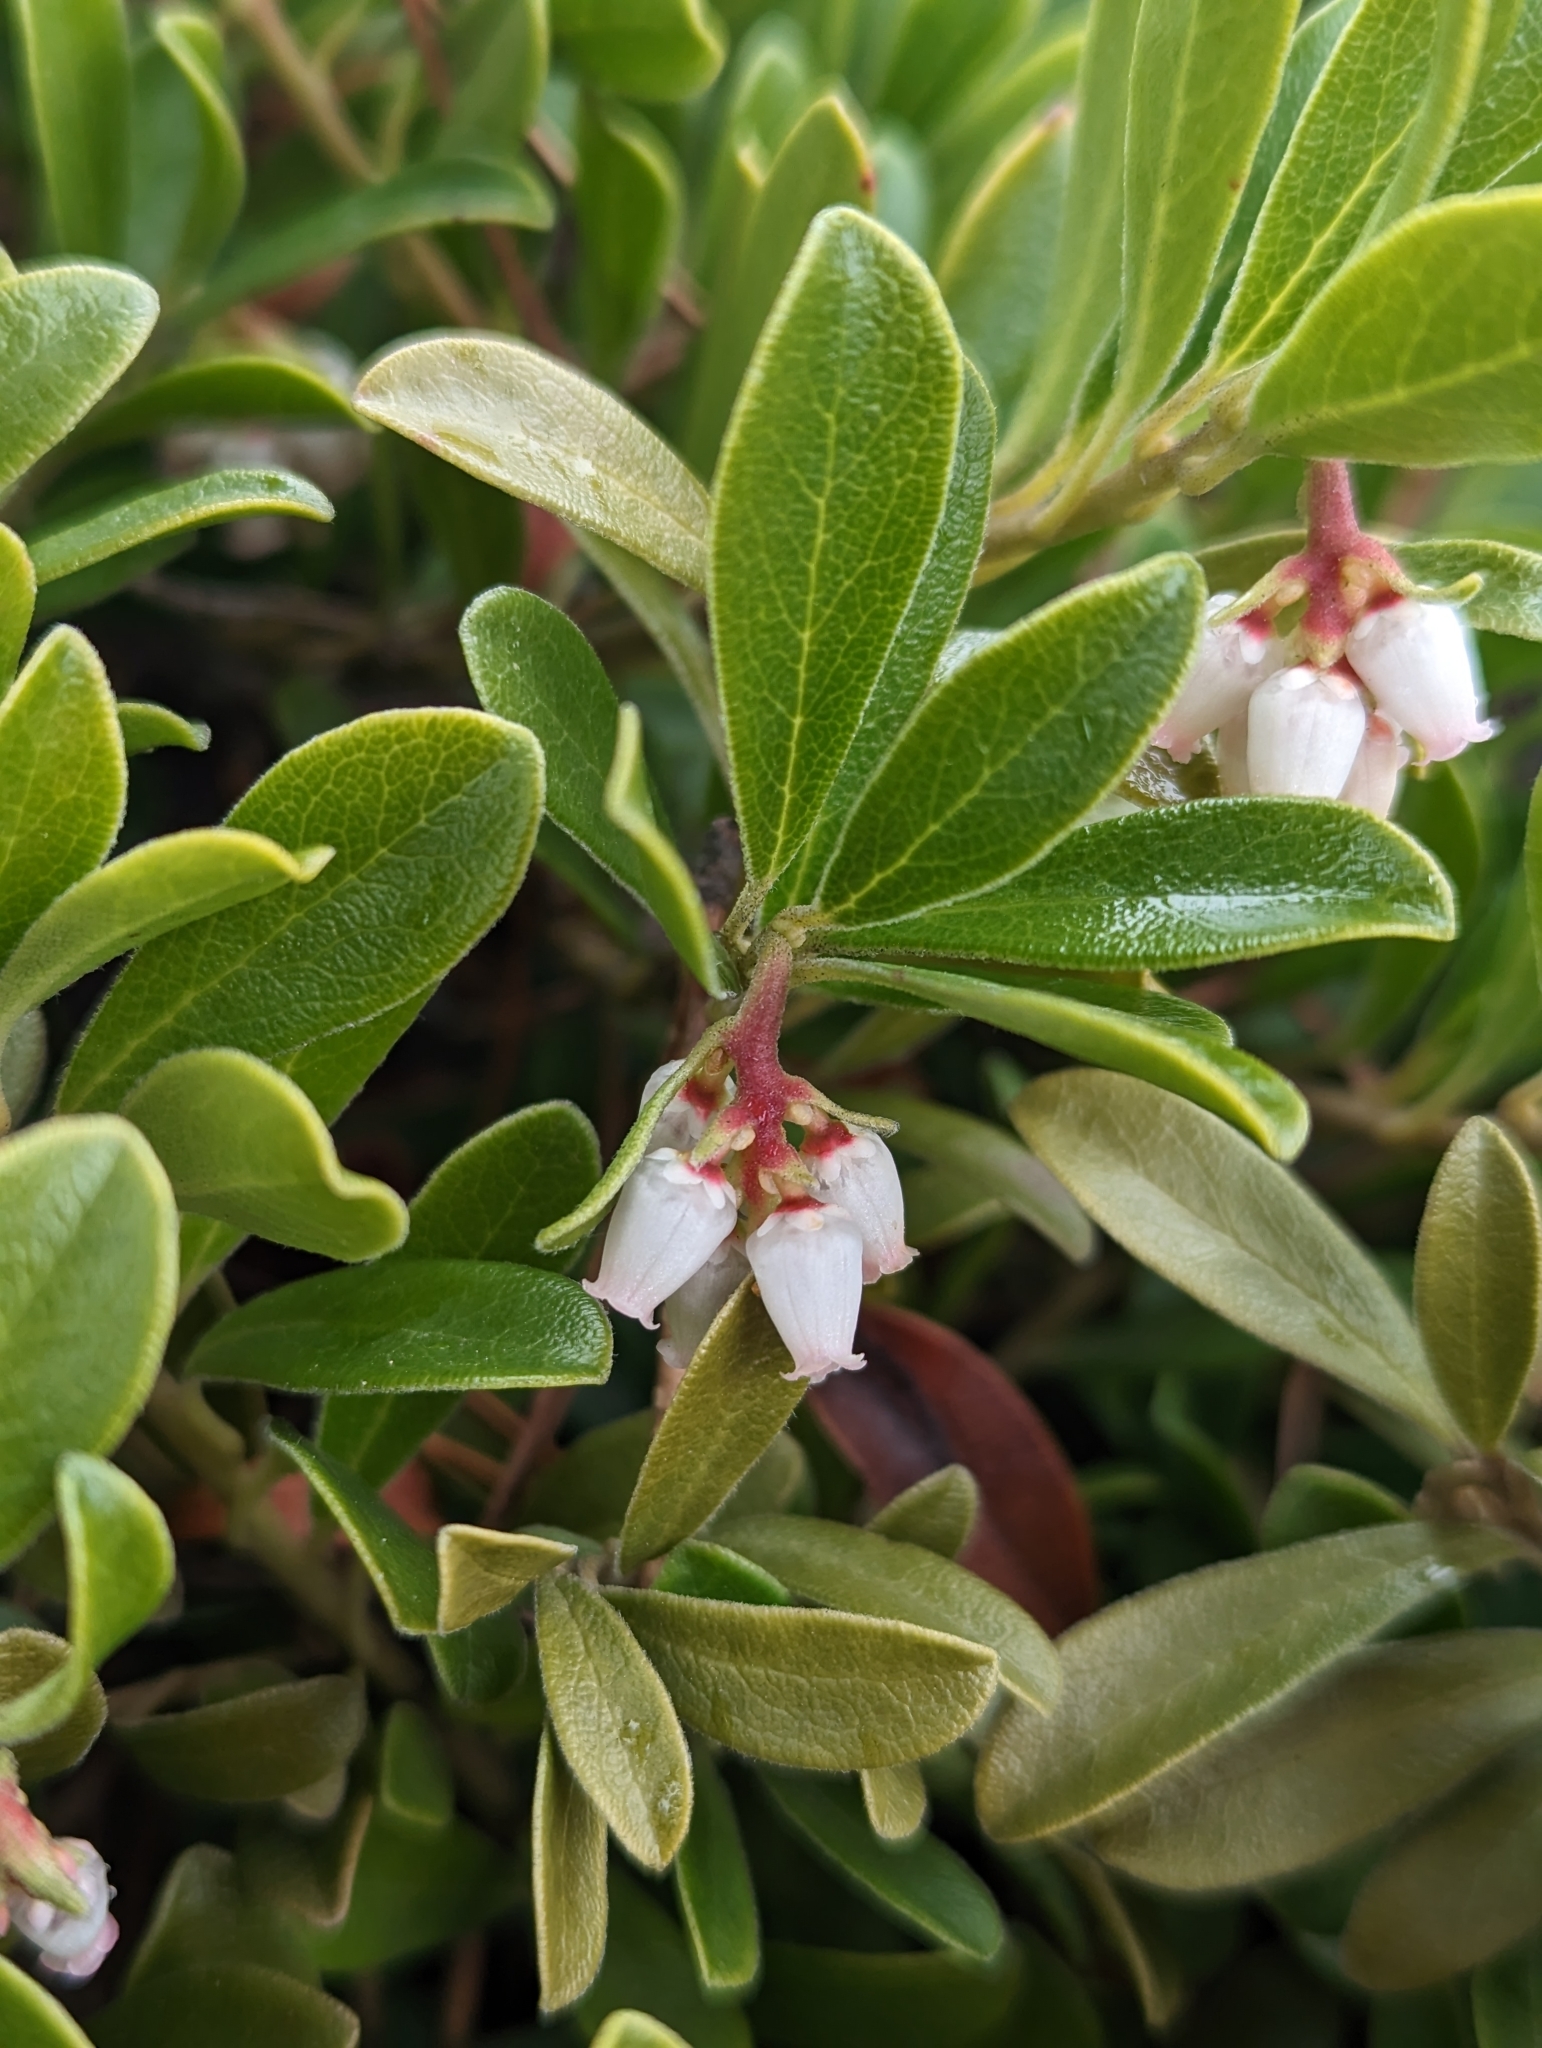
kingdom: Plantae
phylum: Tracheophyta
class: Magnoliopsida
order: Ericales
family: Ericaceae
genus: Arctostaphylos
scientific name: Arctostaphylos uva-ursi
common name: Bearberry
